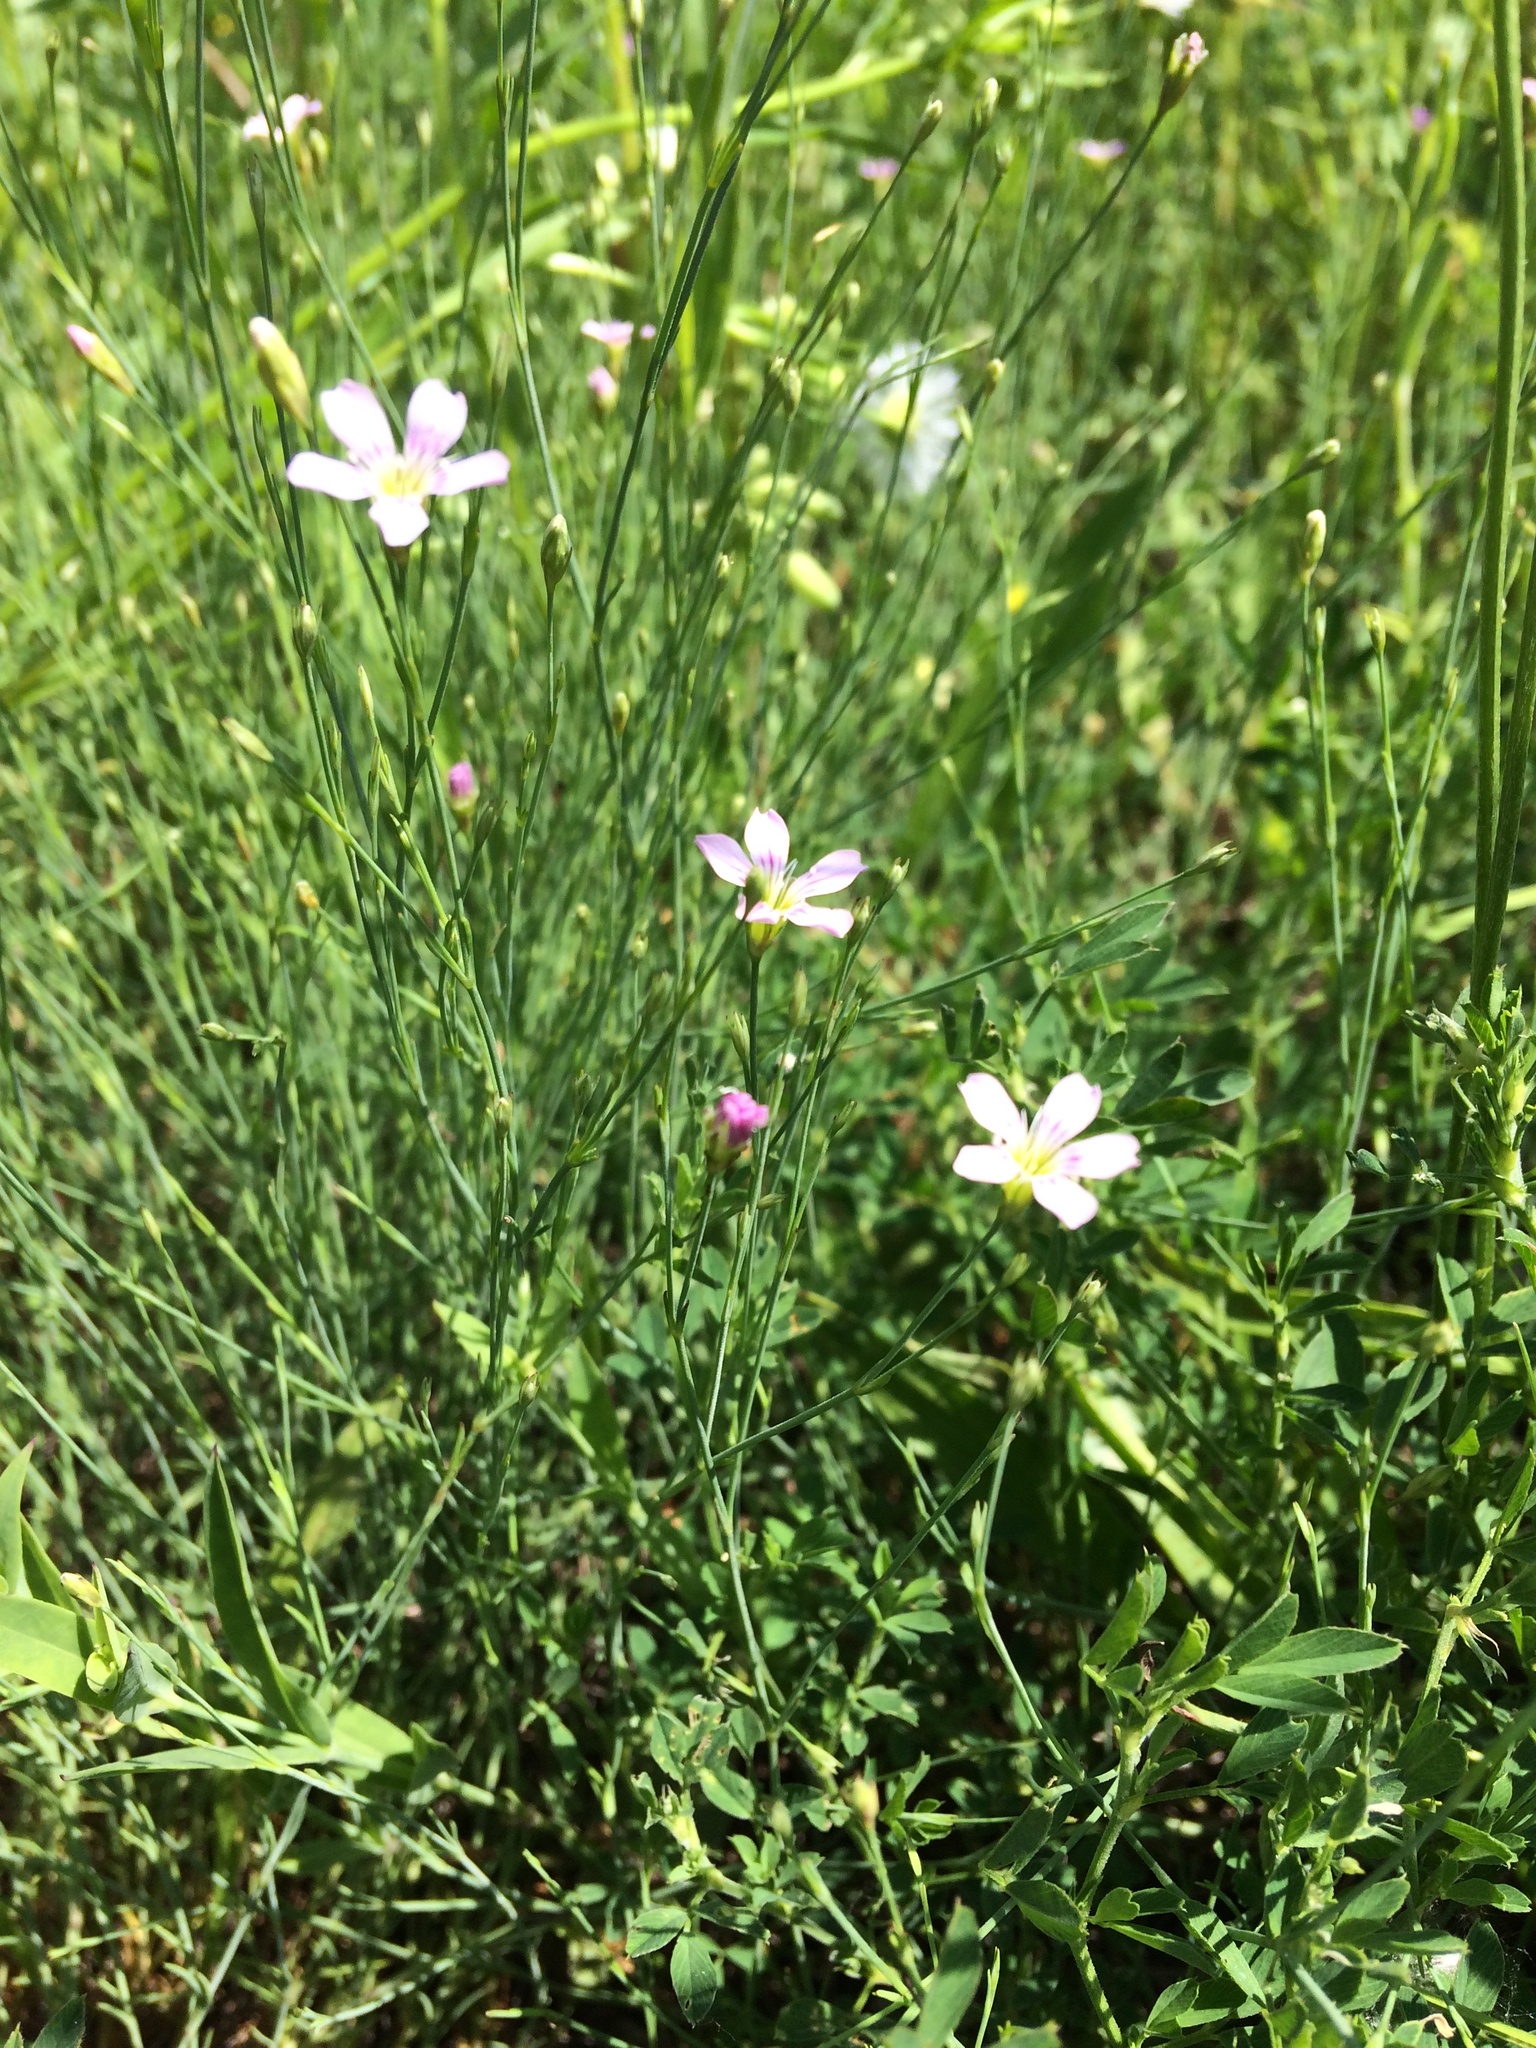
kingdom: Plantae
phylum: Tracheophyta
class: Magnoliopsida
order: Caryophyllales
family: Caryophyllaceae
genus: Petrorhagia
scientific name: Petrorhagia saxifraga
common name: Tunicflower
